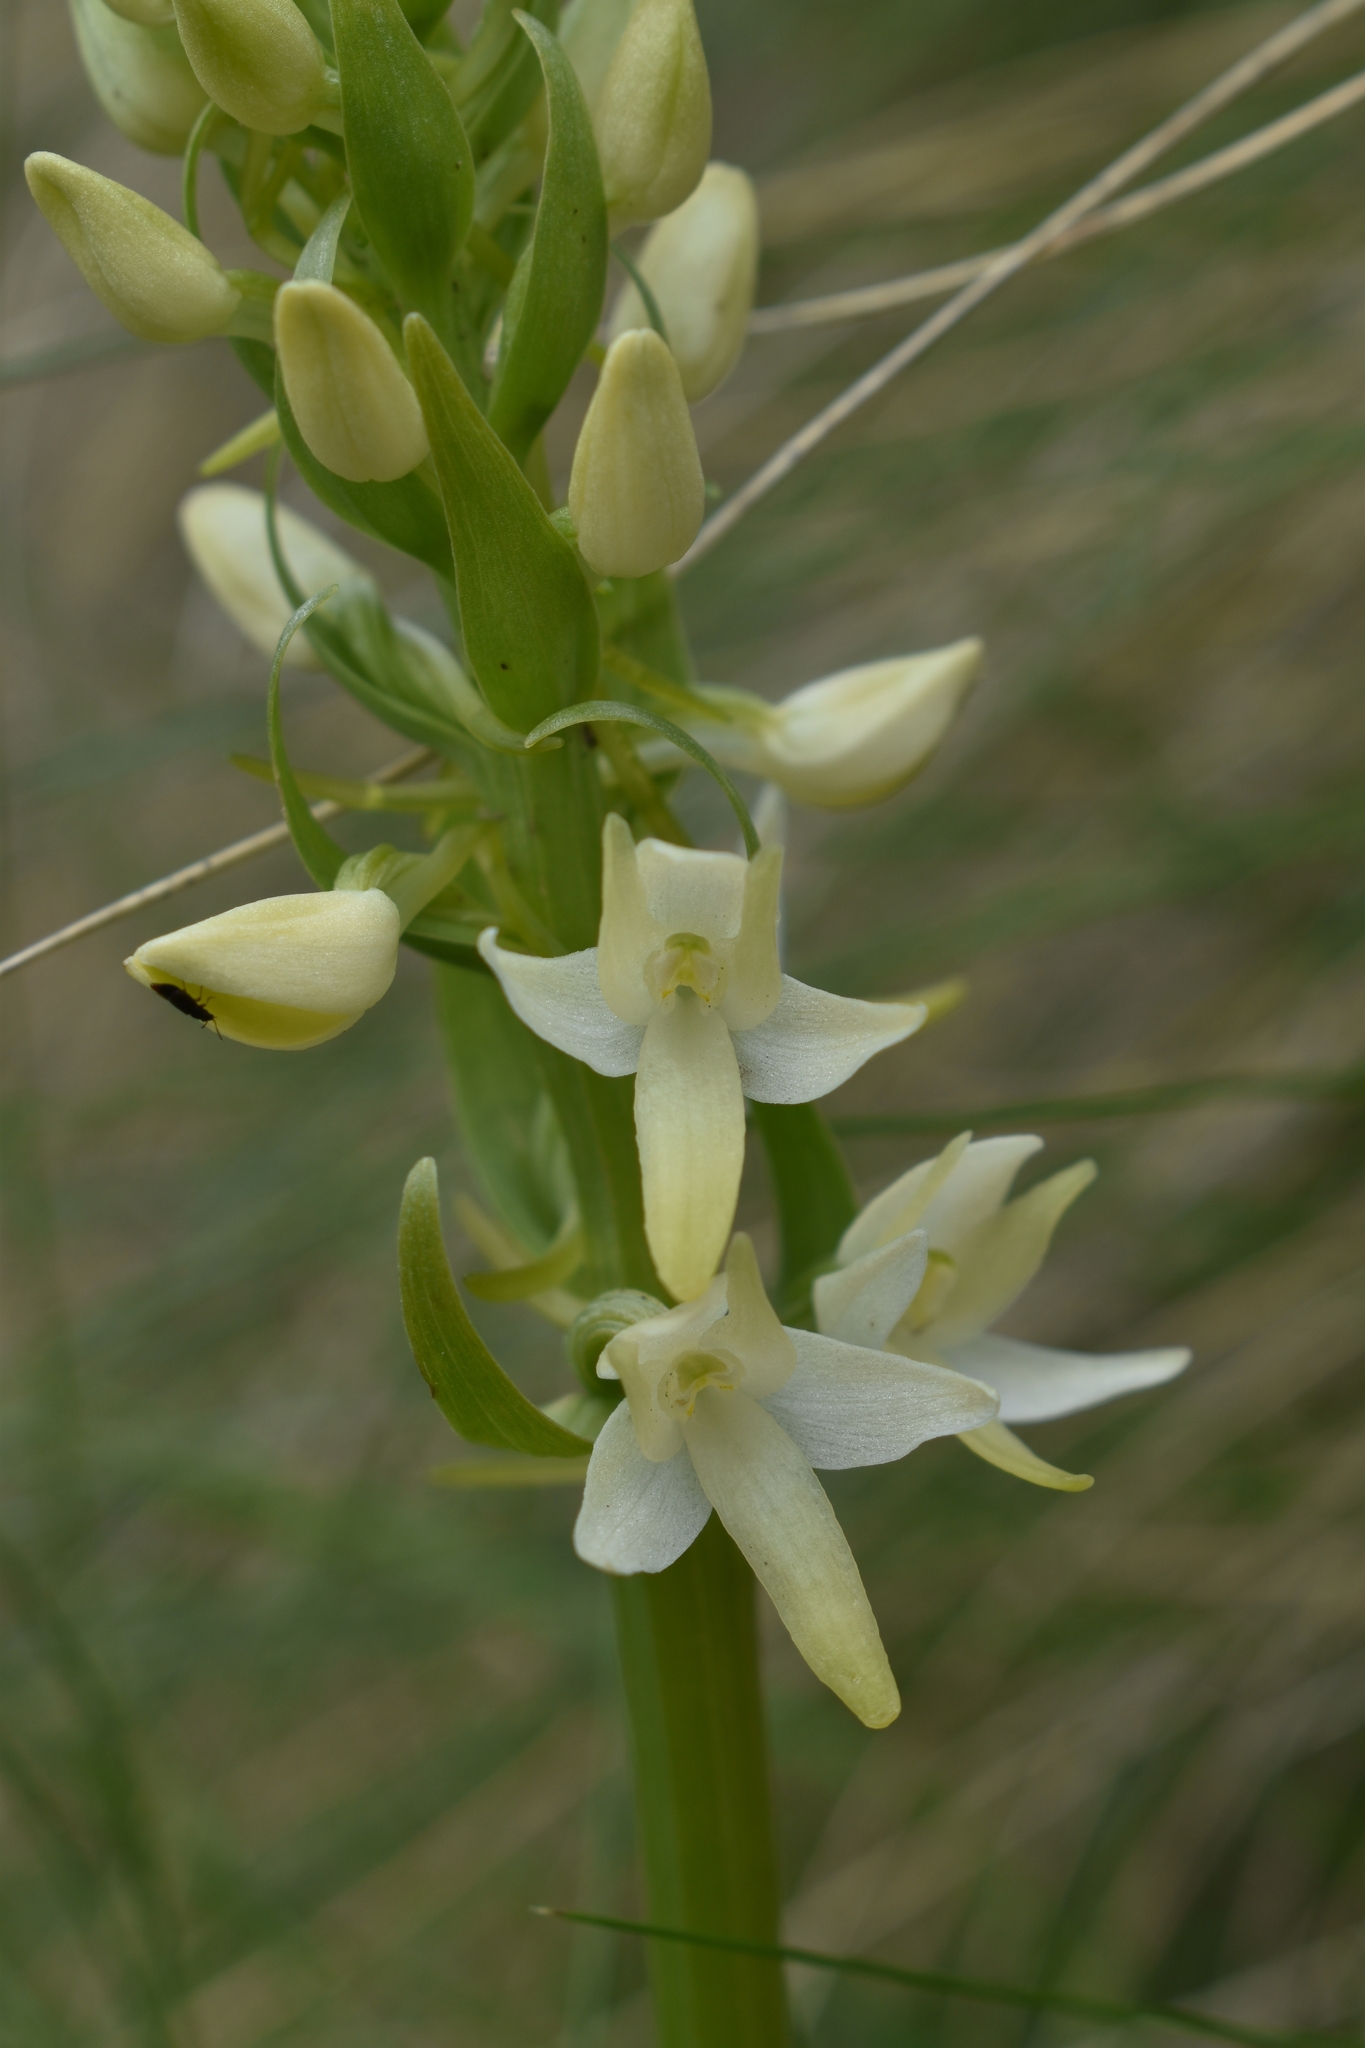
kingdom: Plantae
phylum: Tracheophyta
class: Liliopsida
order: Asparagales
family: Orchidaceae
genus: Platanthera
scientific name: Platanthera bifolia
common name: Lesser butterfly-orchid
